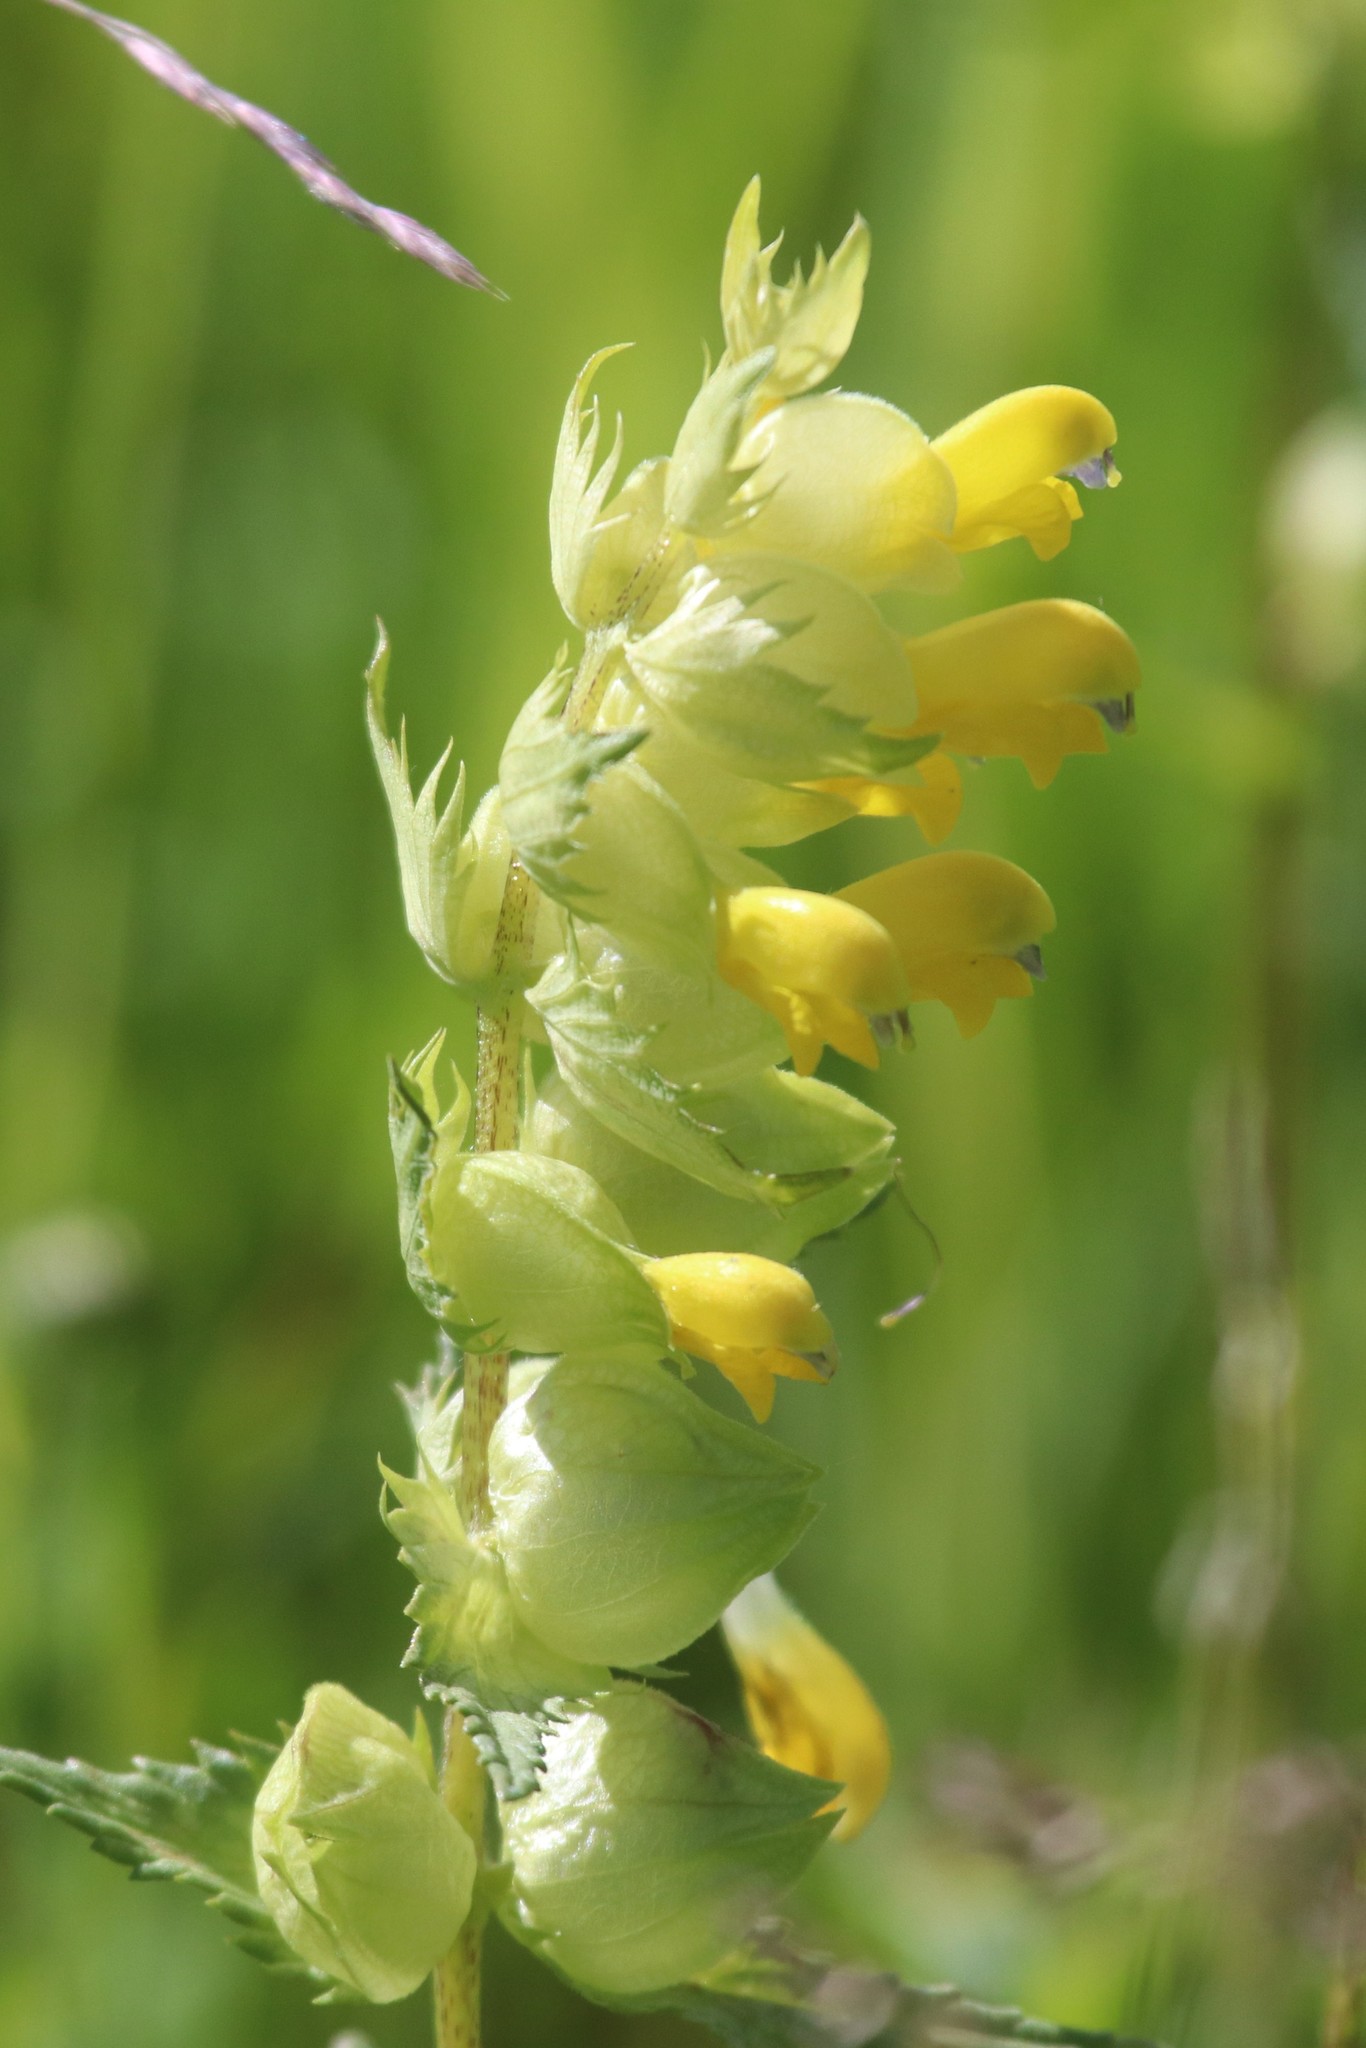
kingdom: Plantae
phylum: Tracheophyta
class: Magnoliopsida
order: Lamiales
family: Orobanchaceae
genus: Rhinanthus
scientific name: Rhinanthus serotinus
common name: Late-flowering yellow rattle
